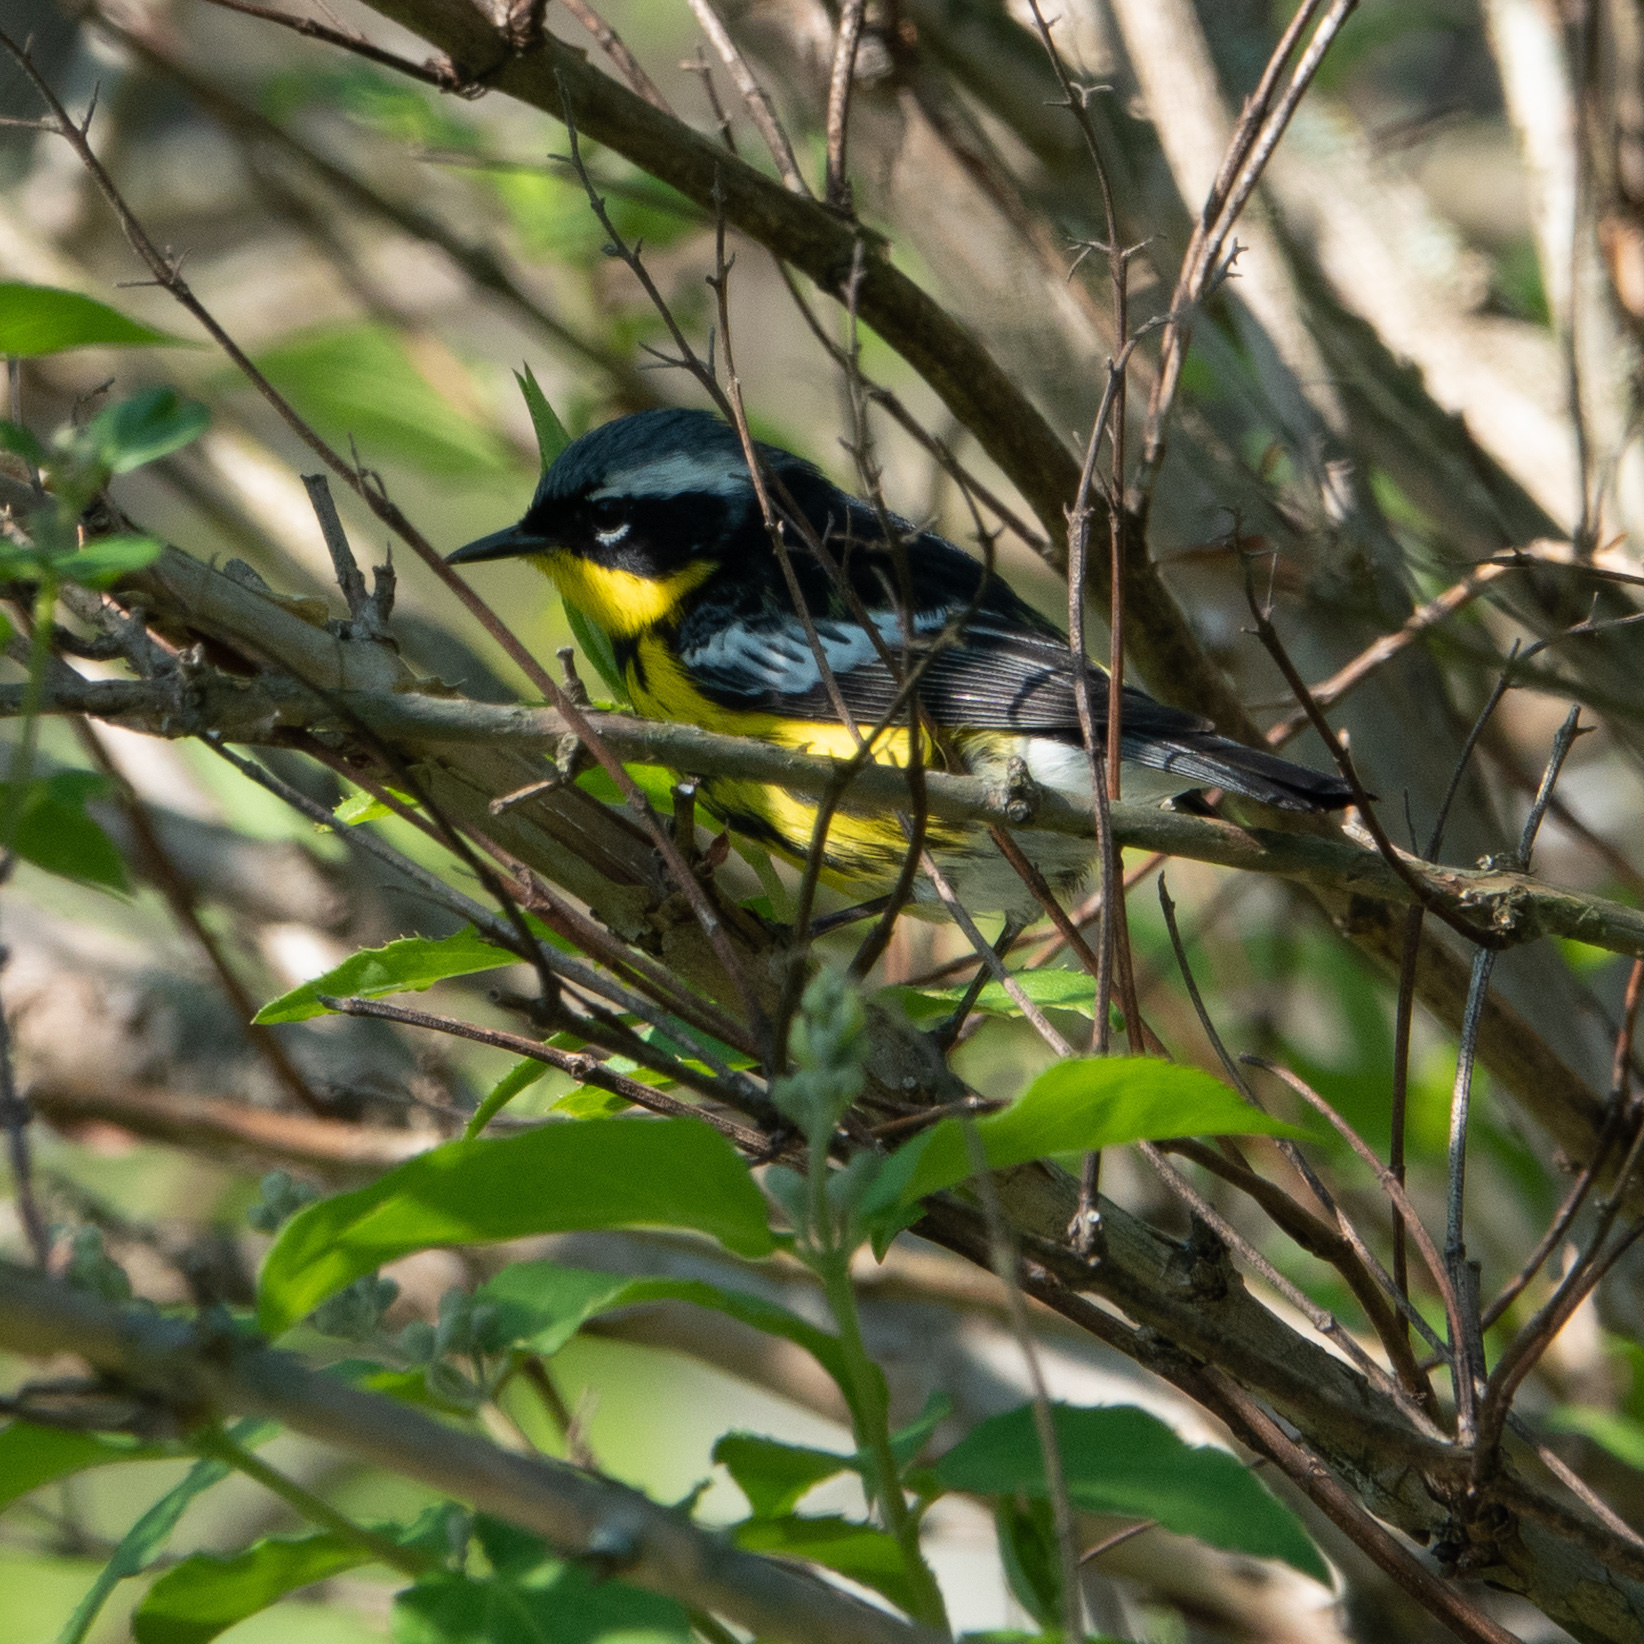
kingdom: Animalia
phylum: Chordata
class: Aves
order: Passeriformes
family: Parulidae
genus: Setophaga
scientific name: Setophaga magnolia
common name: Magnolia warbler
